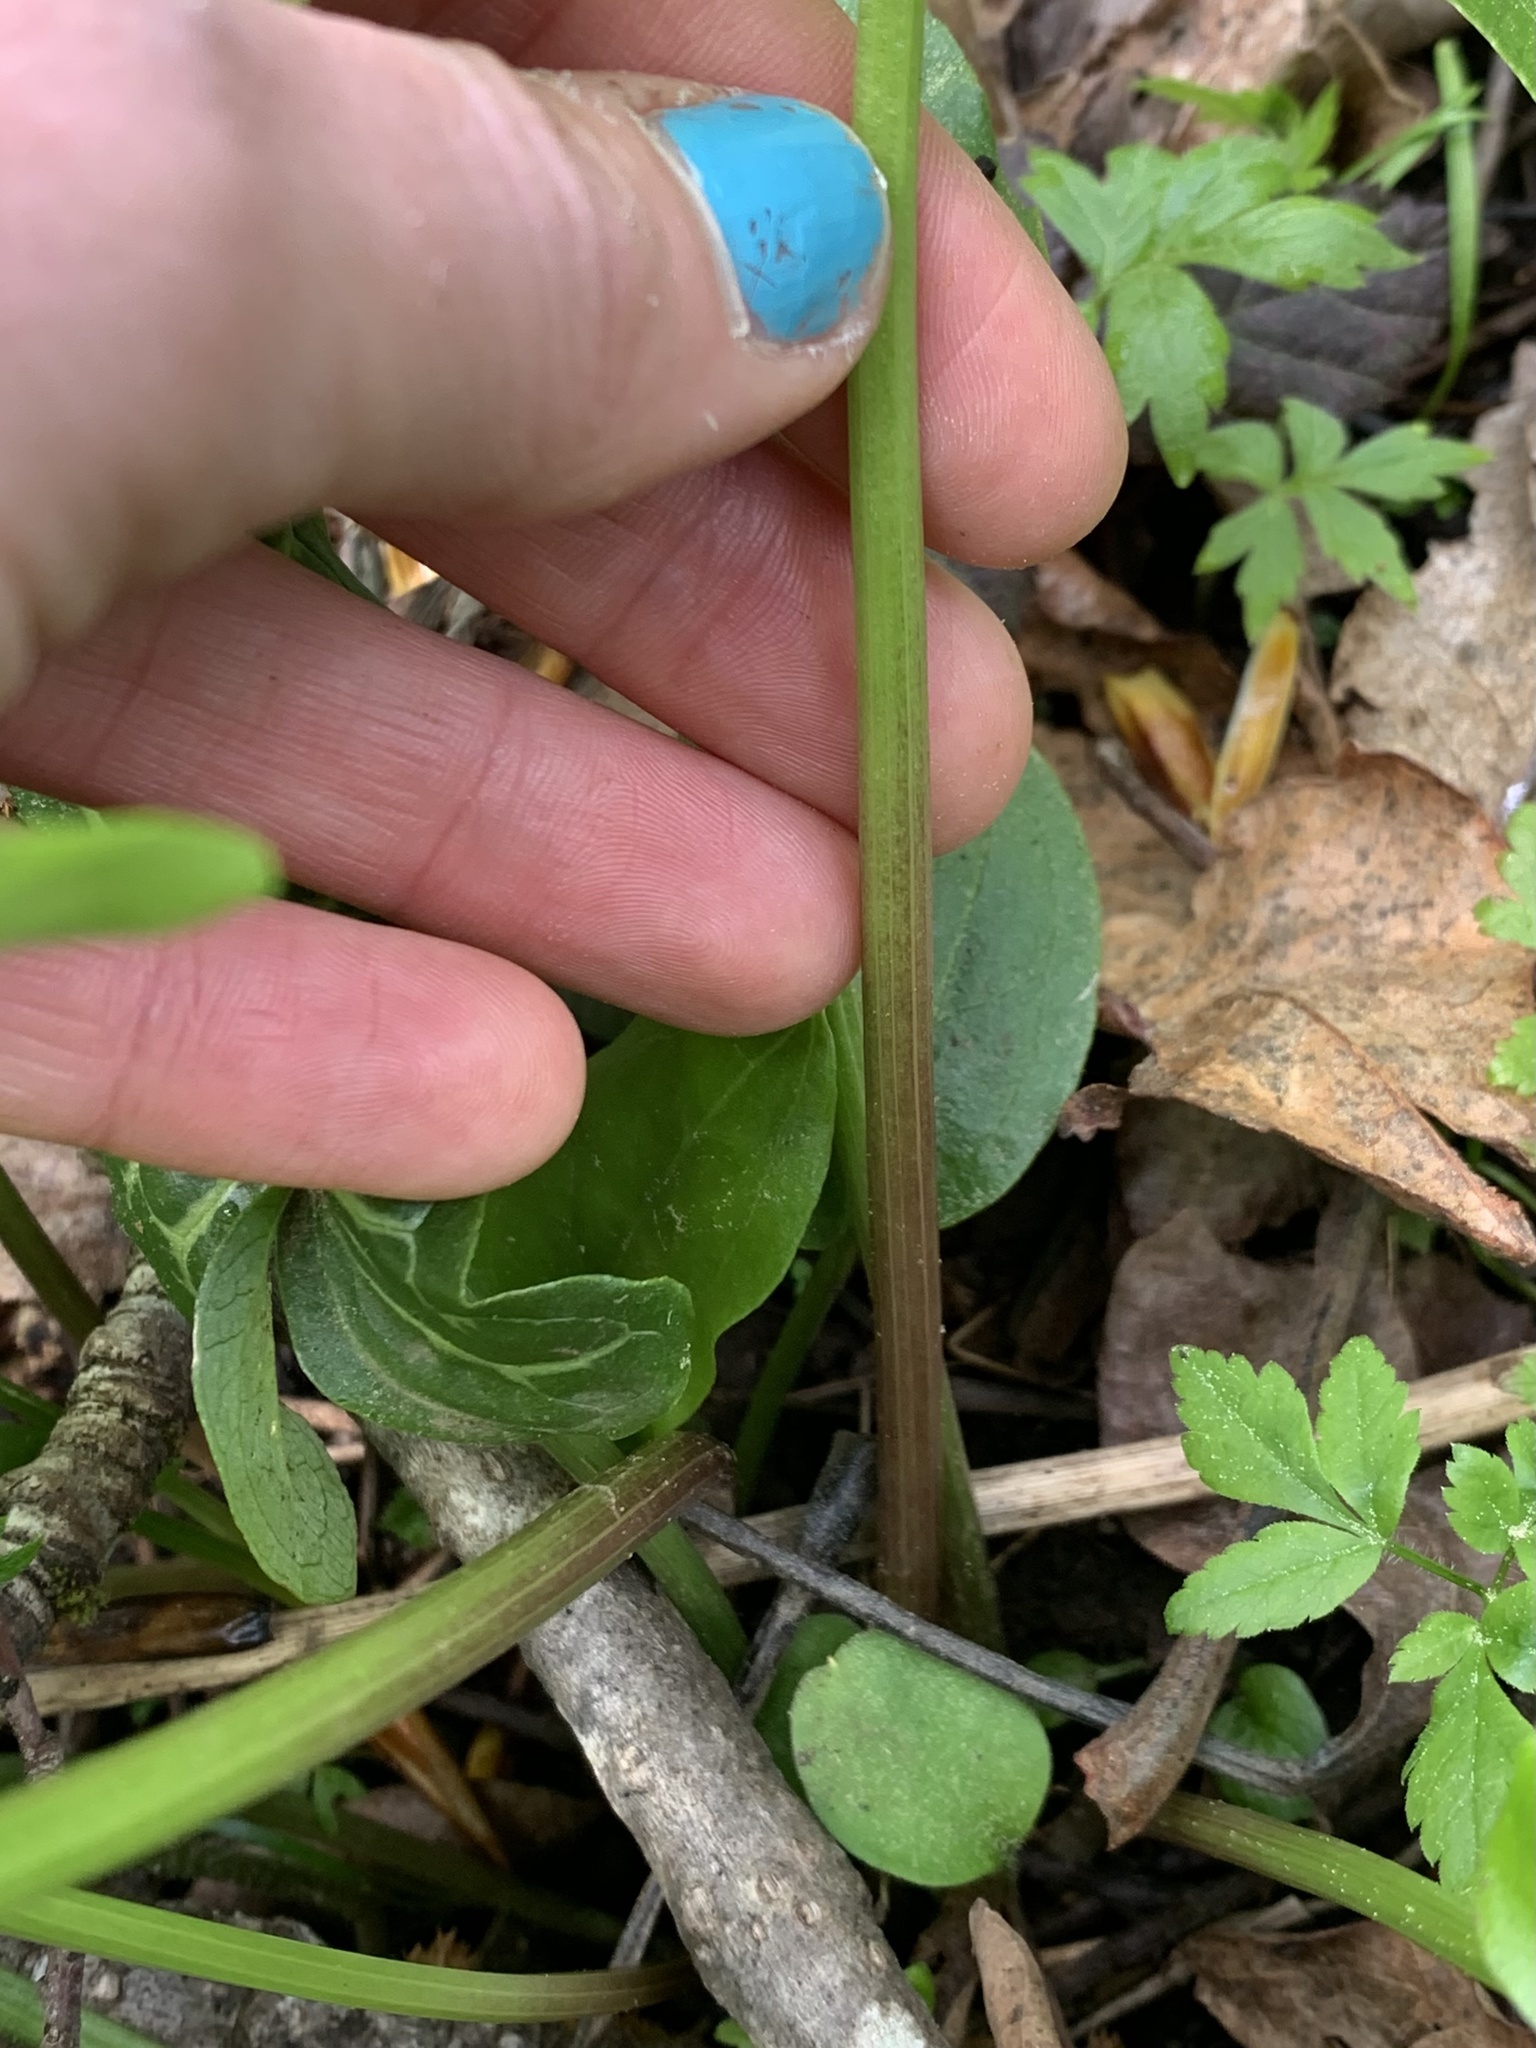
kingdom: Plantae
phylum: Tracheophyta
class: Liliopsida
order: Alismatales
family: Araceae
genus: Arum
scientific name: Arum italicum
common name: Italian lords-and-ladies
